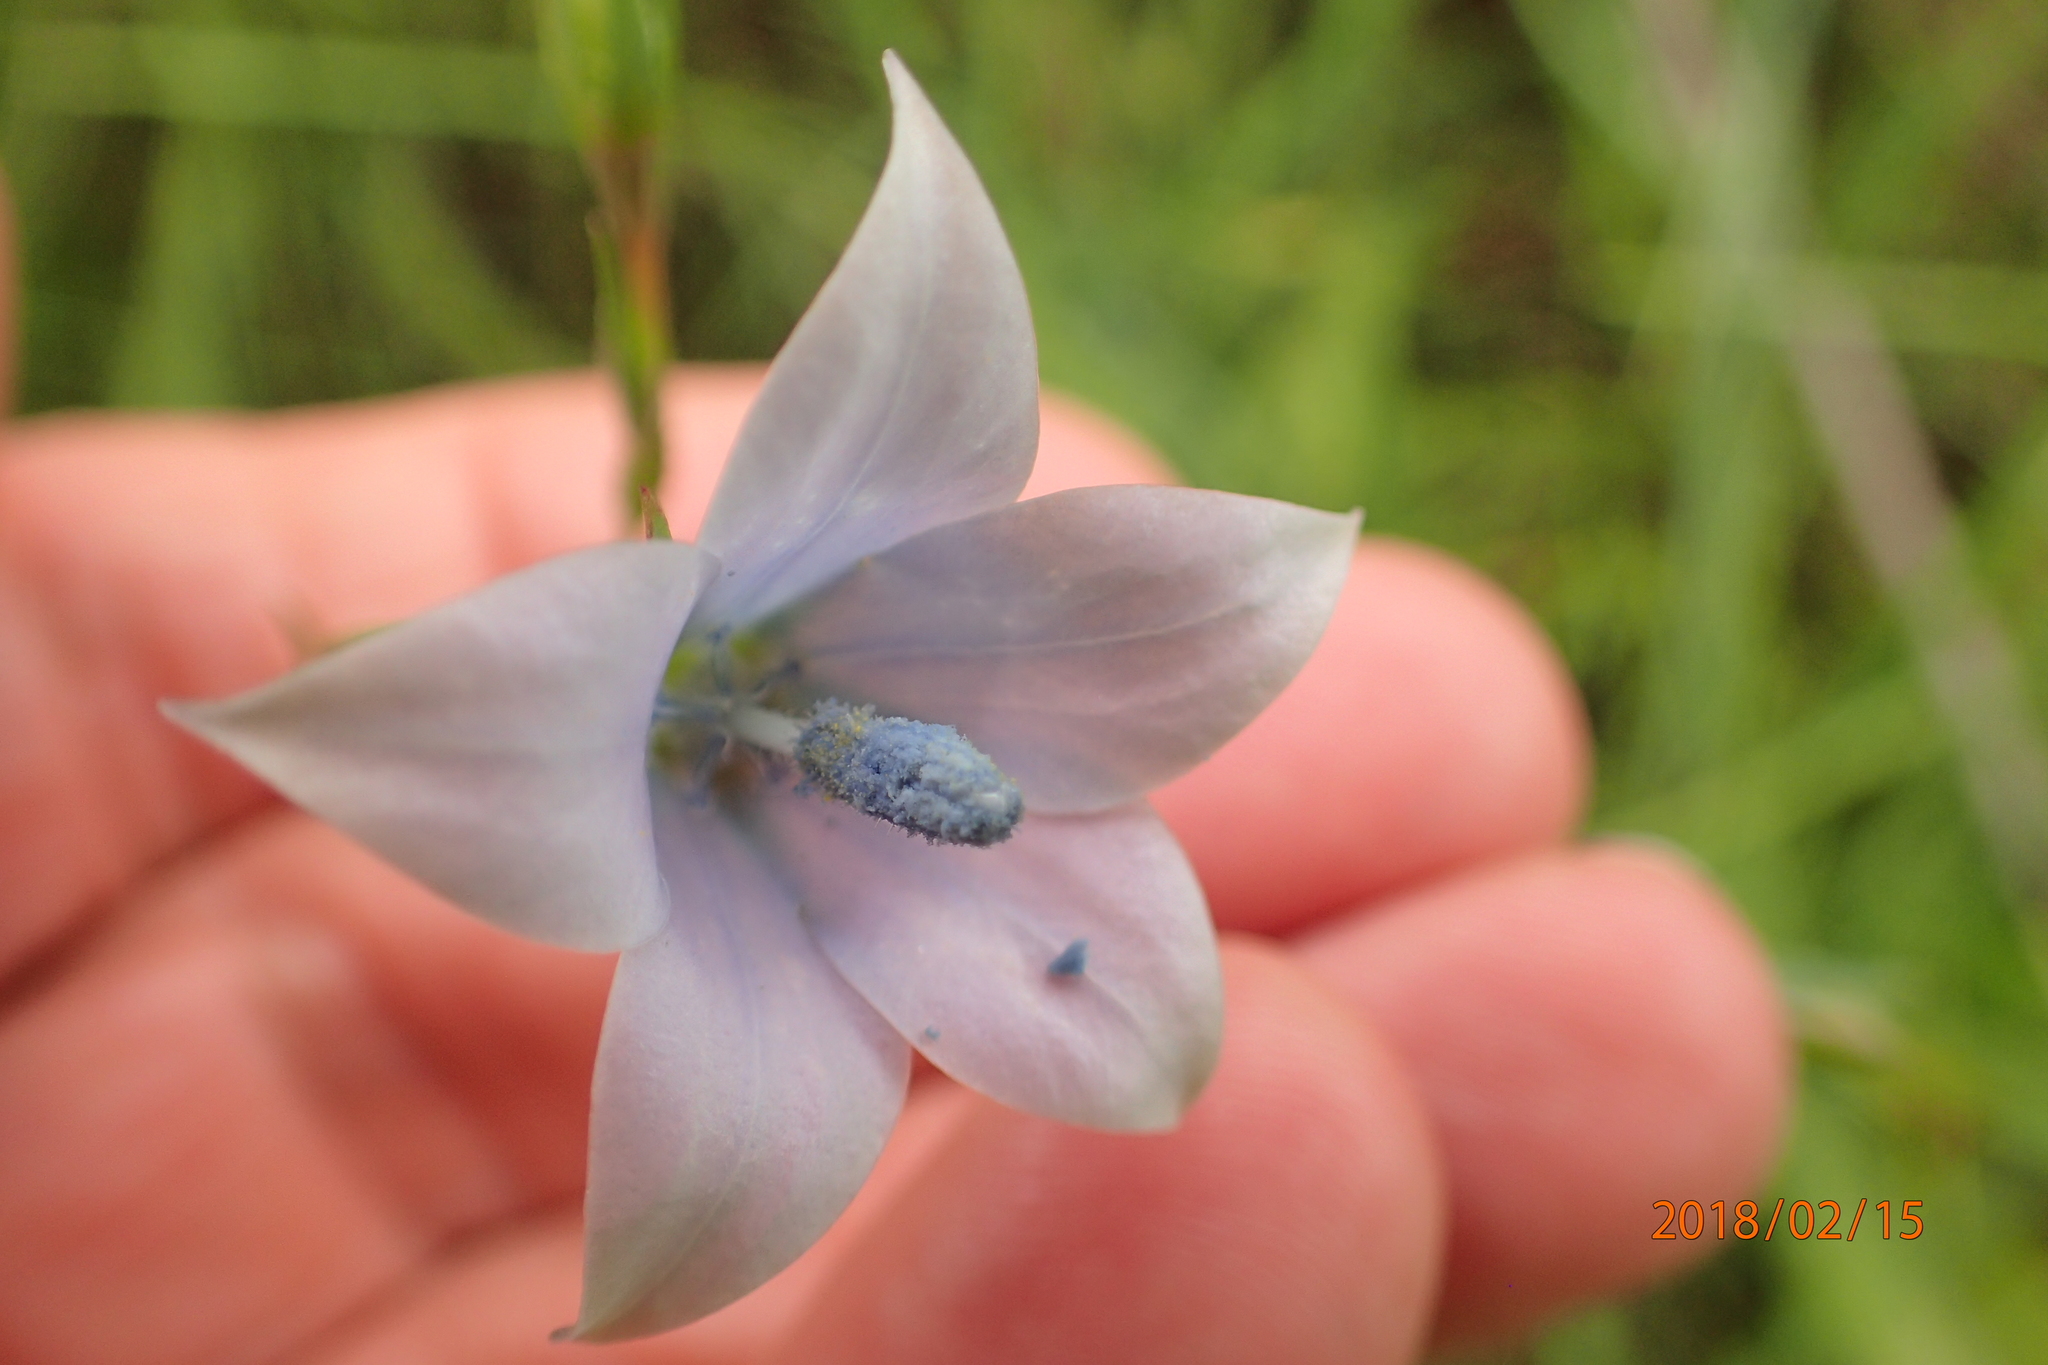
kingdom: Plantae
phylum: Tracheophyta
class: Magnoliopsida
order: Asterales
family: Campanulaceae
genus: Wahlenbergia
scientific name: Wahlenbergia krebsii
